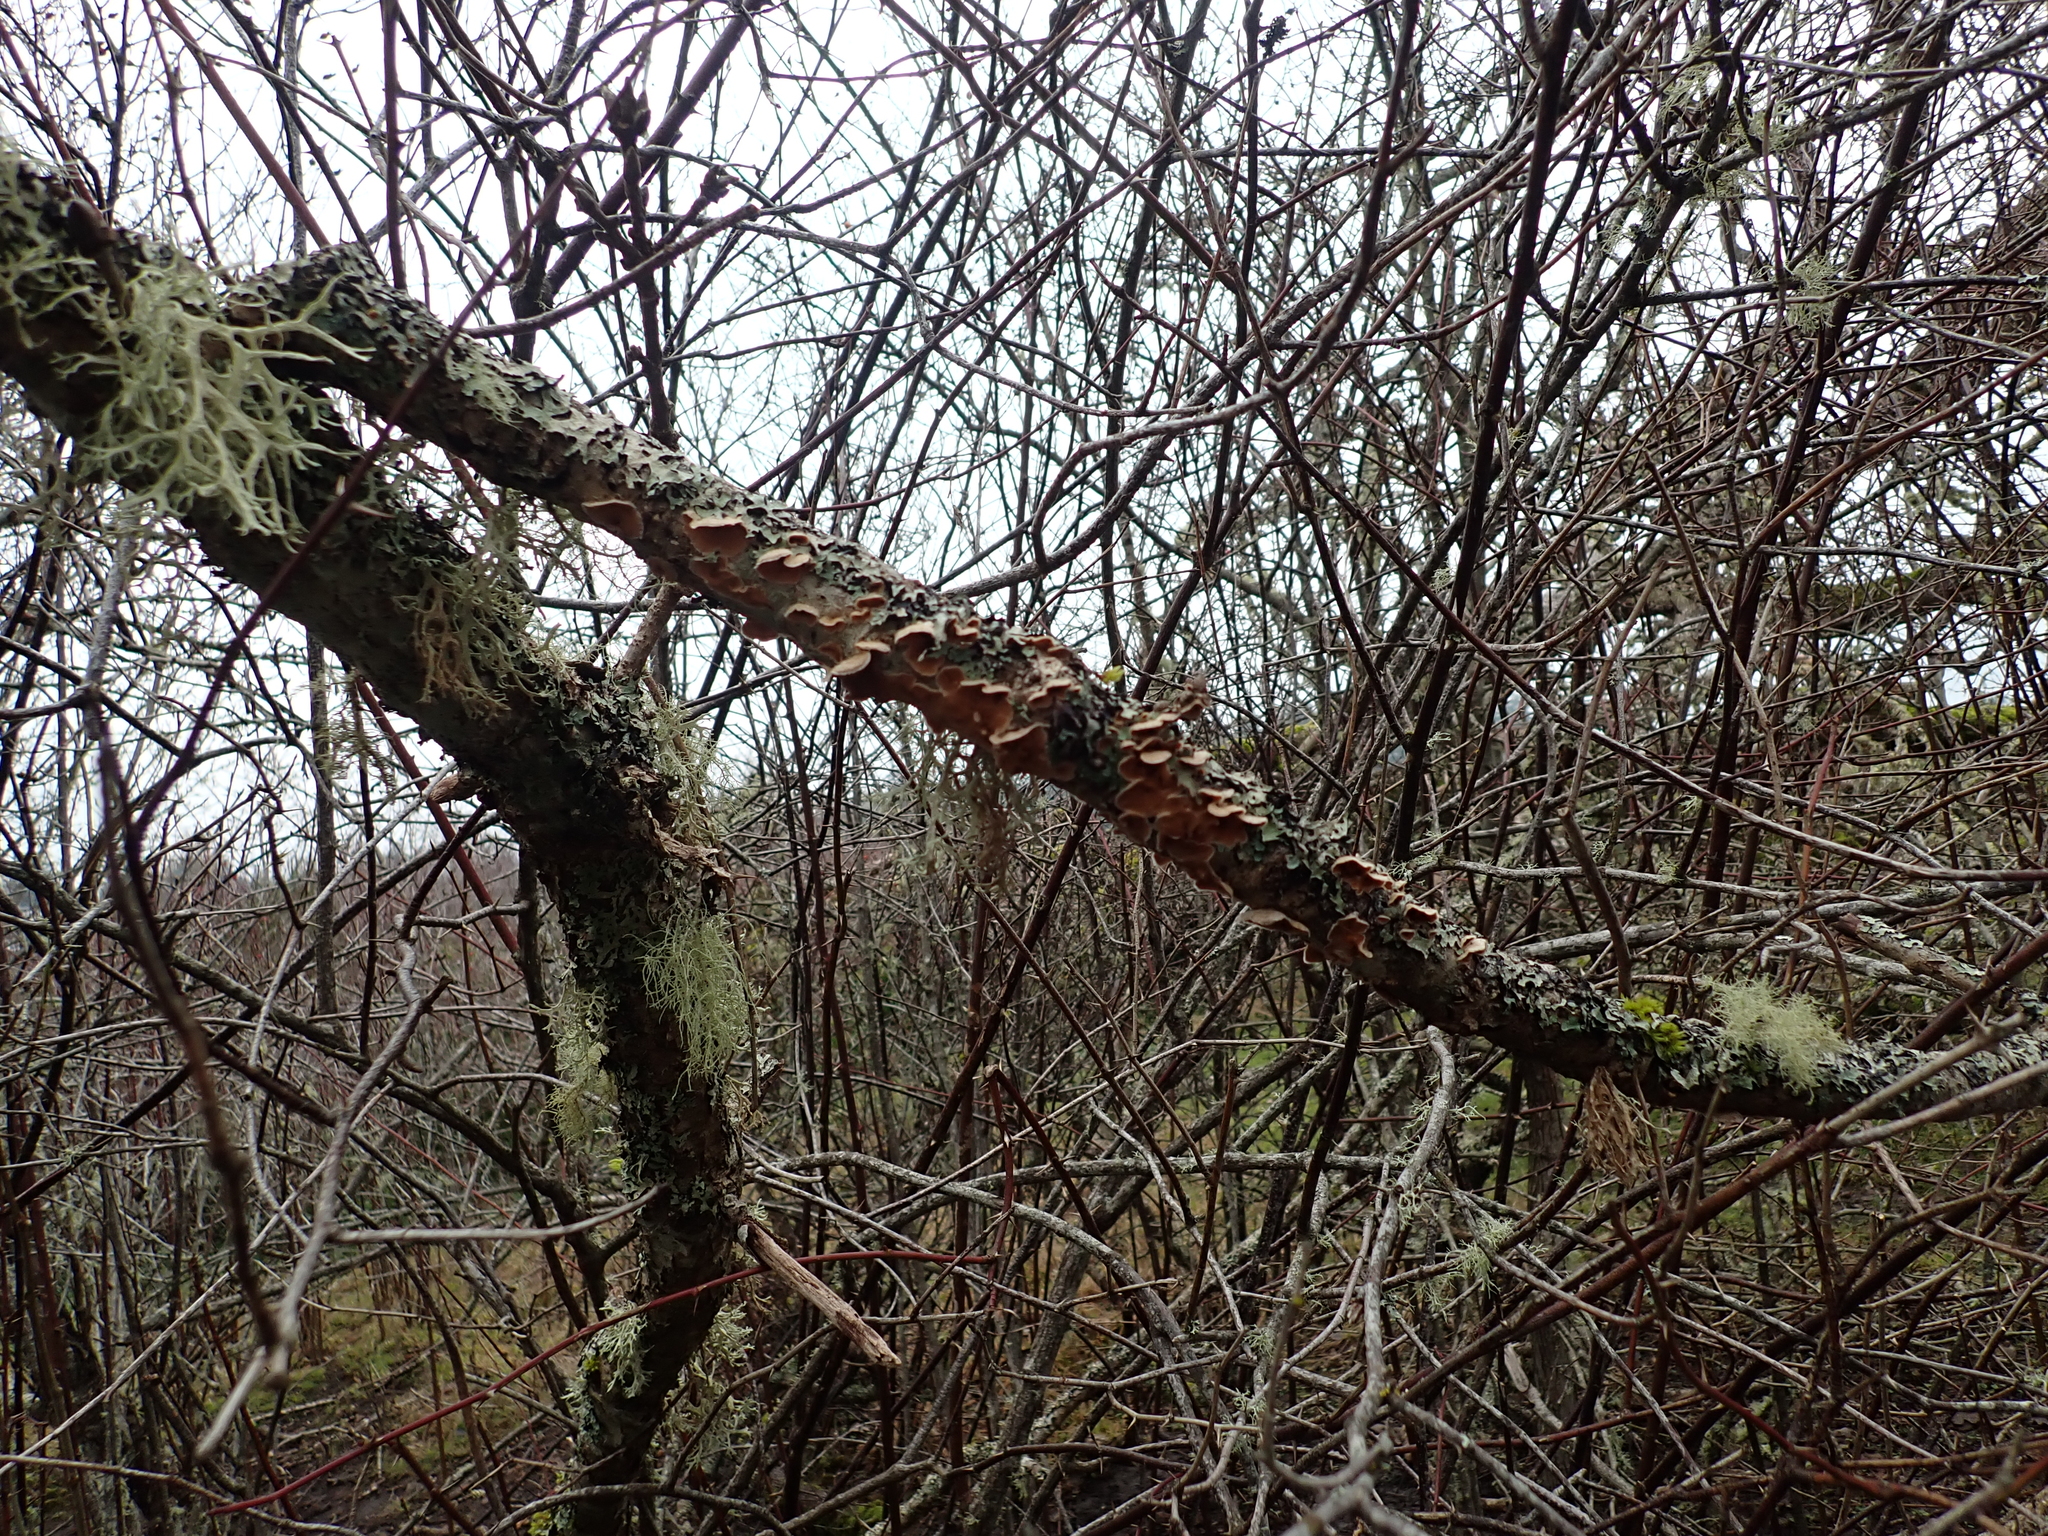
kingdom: Fungi
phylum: Basidiomycota
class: Agaricomycetes
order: Russulales
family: Stereaceae
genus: Stereum
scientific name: Stereum ochraceoflavum
